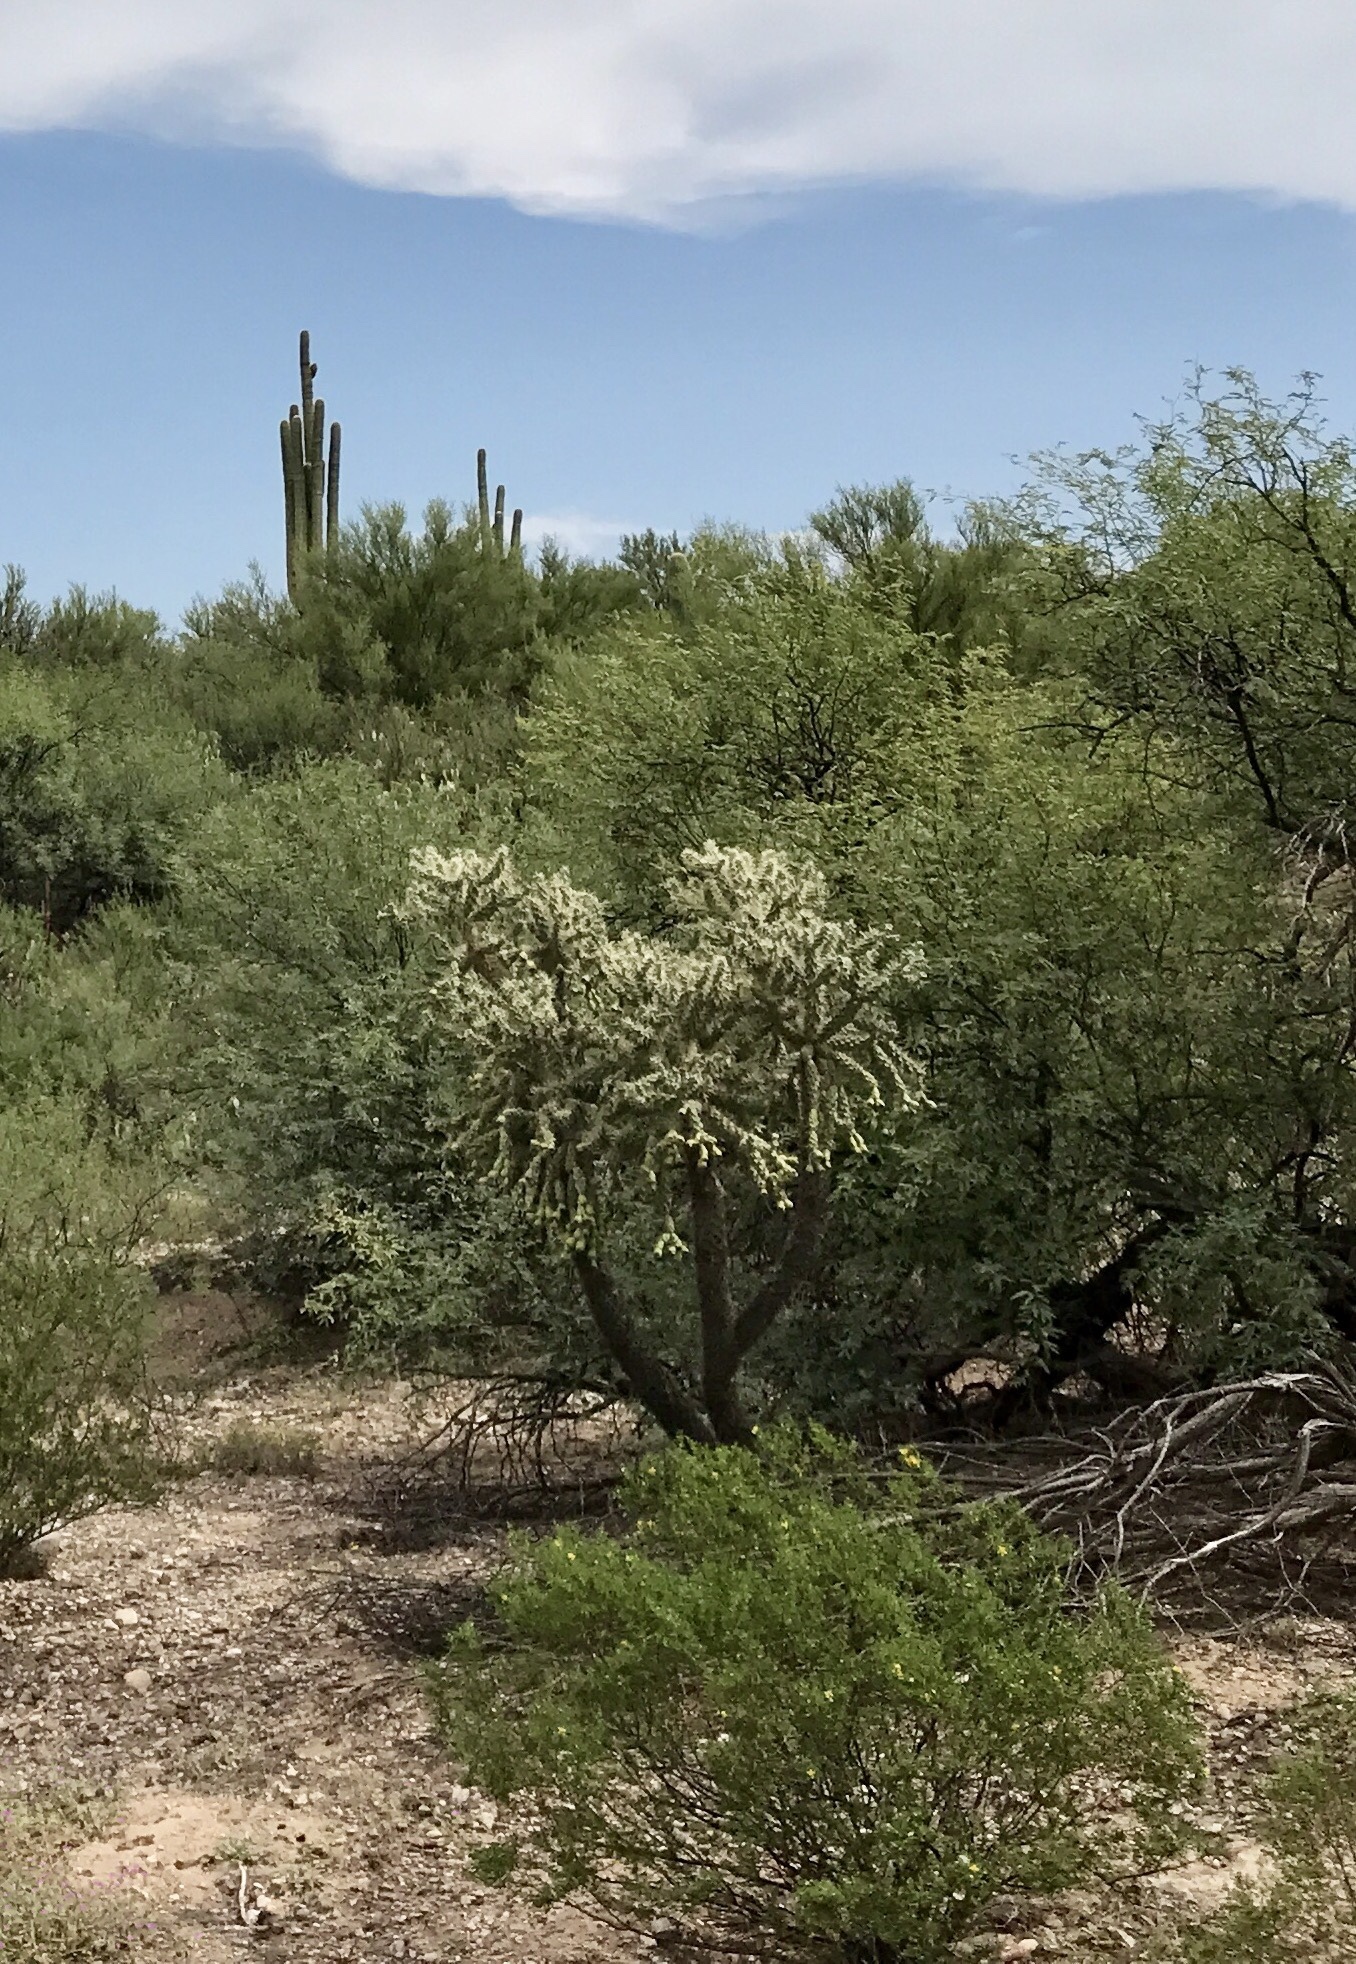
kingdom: Plantae
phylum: Tracheophyta
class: Magnoliopsida
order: Caryophyllales
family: Cactaceae
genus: Cylindropuntia
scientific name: Cylindropuntia fulgida
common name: Jumping cholla
